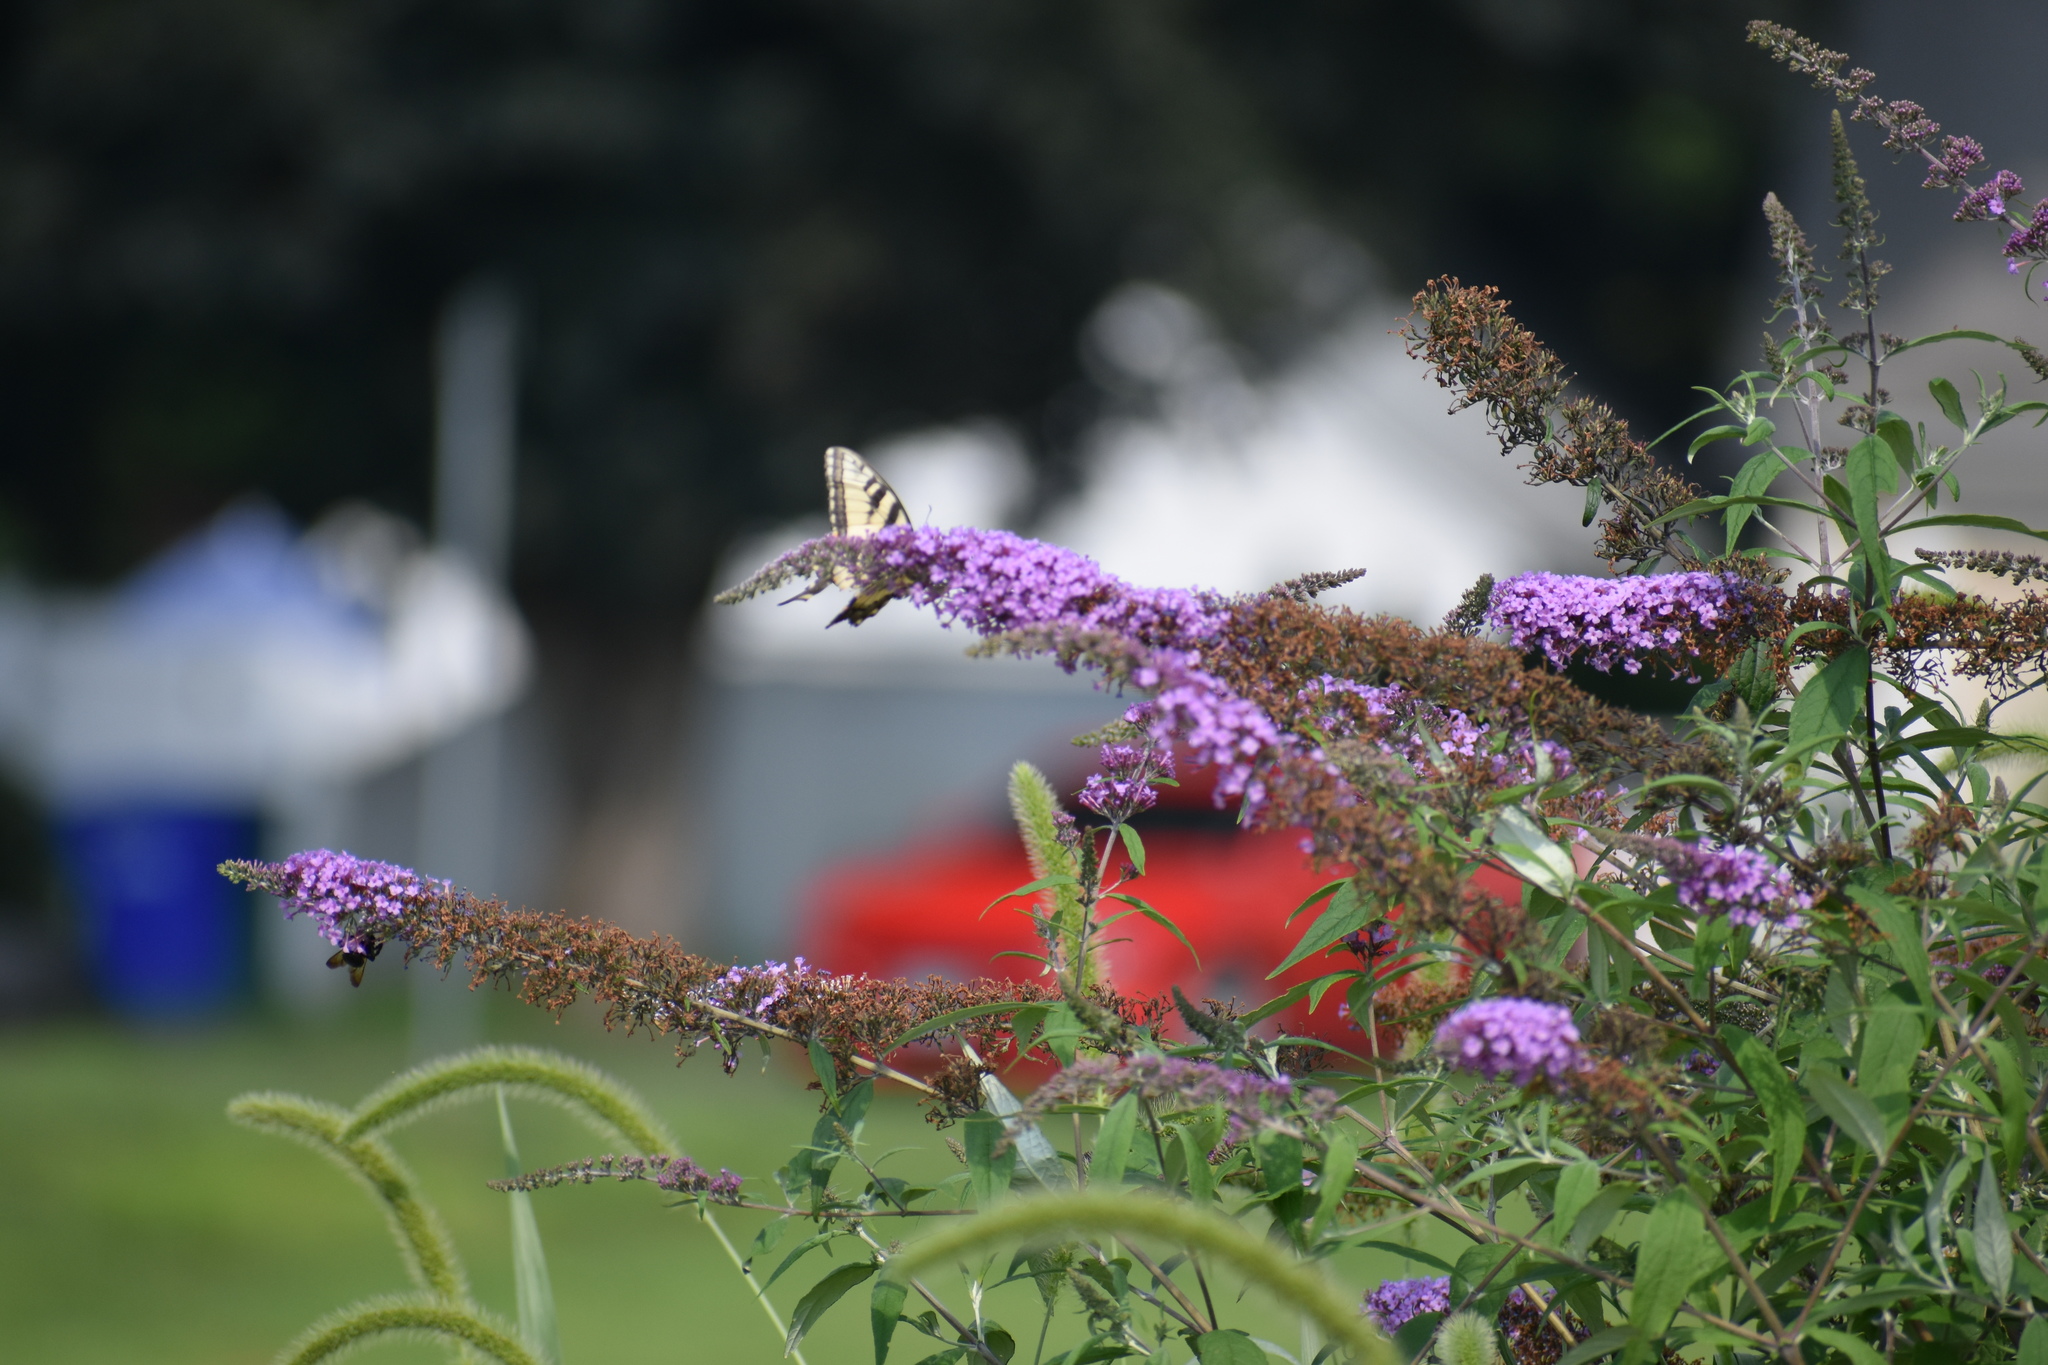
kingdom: Animalia
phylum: Arthropoda
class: Insecta
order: Lepidoptera
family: Papilionidae
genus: Papilio
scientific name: Papilio glaucus
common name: Tiger swallowtail
